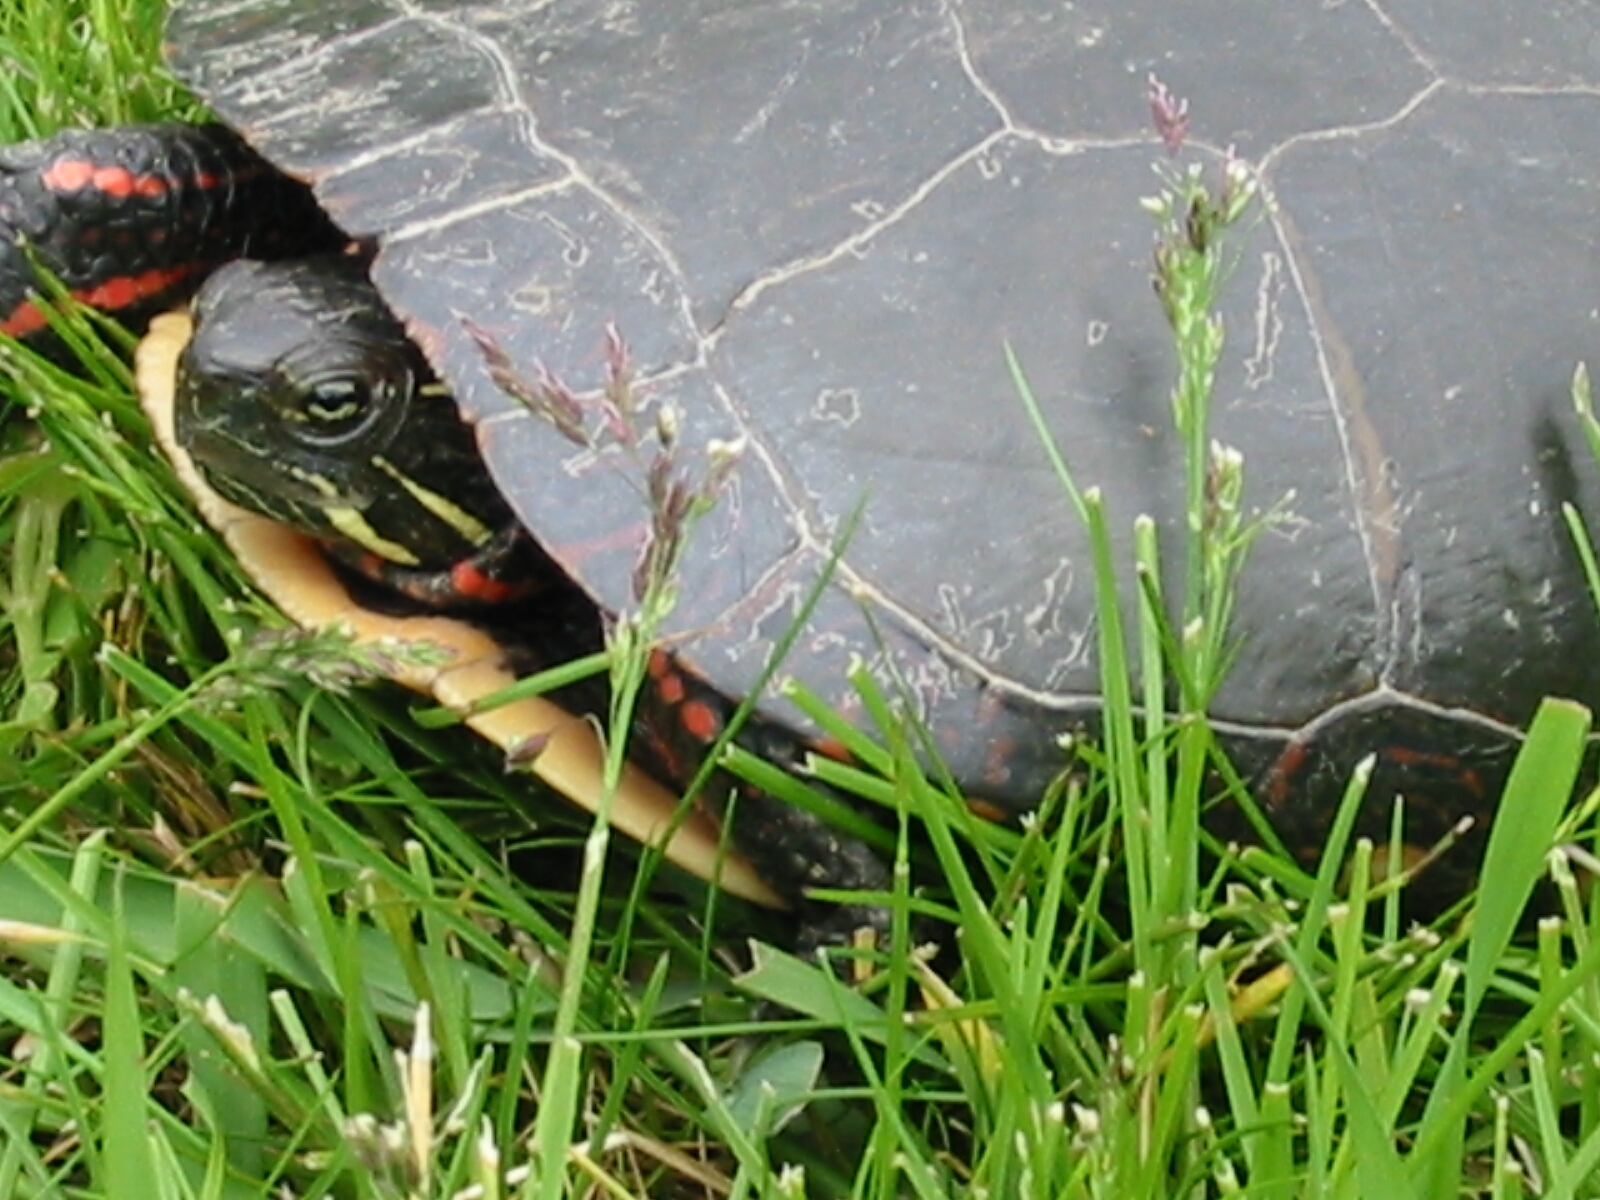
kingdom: Animalia
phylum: Chordata
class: Testudines
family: Emydidae
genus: Chrysemys
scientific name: Chrysemys picta
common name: Painted turtle
